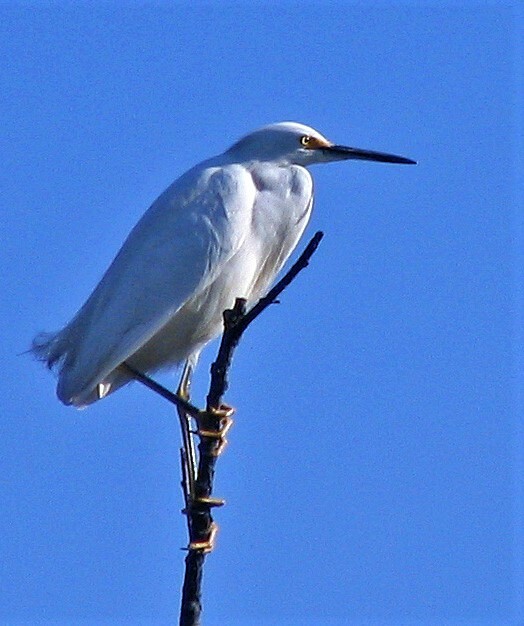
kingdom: Animalia
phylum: Chordata
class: Aves
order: Pelecaniformes
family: Ardeidae
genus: Egretta
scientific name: Egretta thula
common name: Snowy egret
